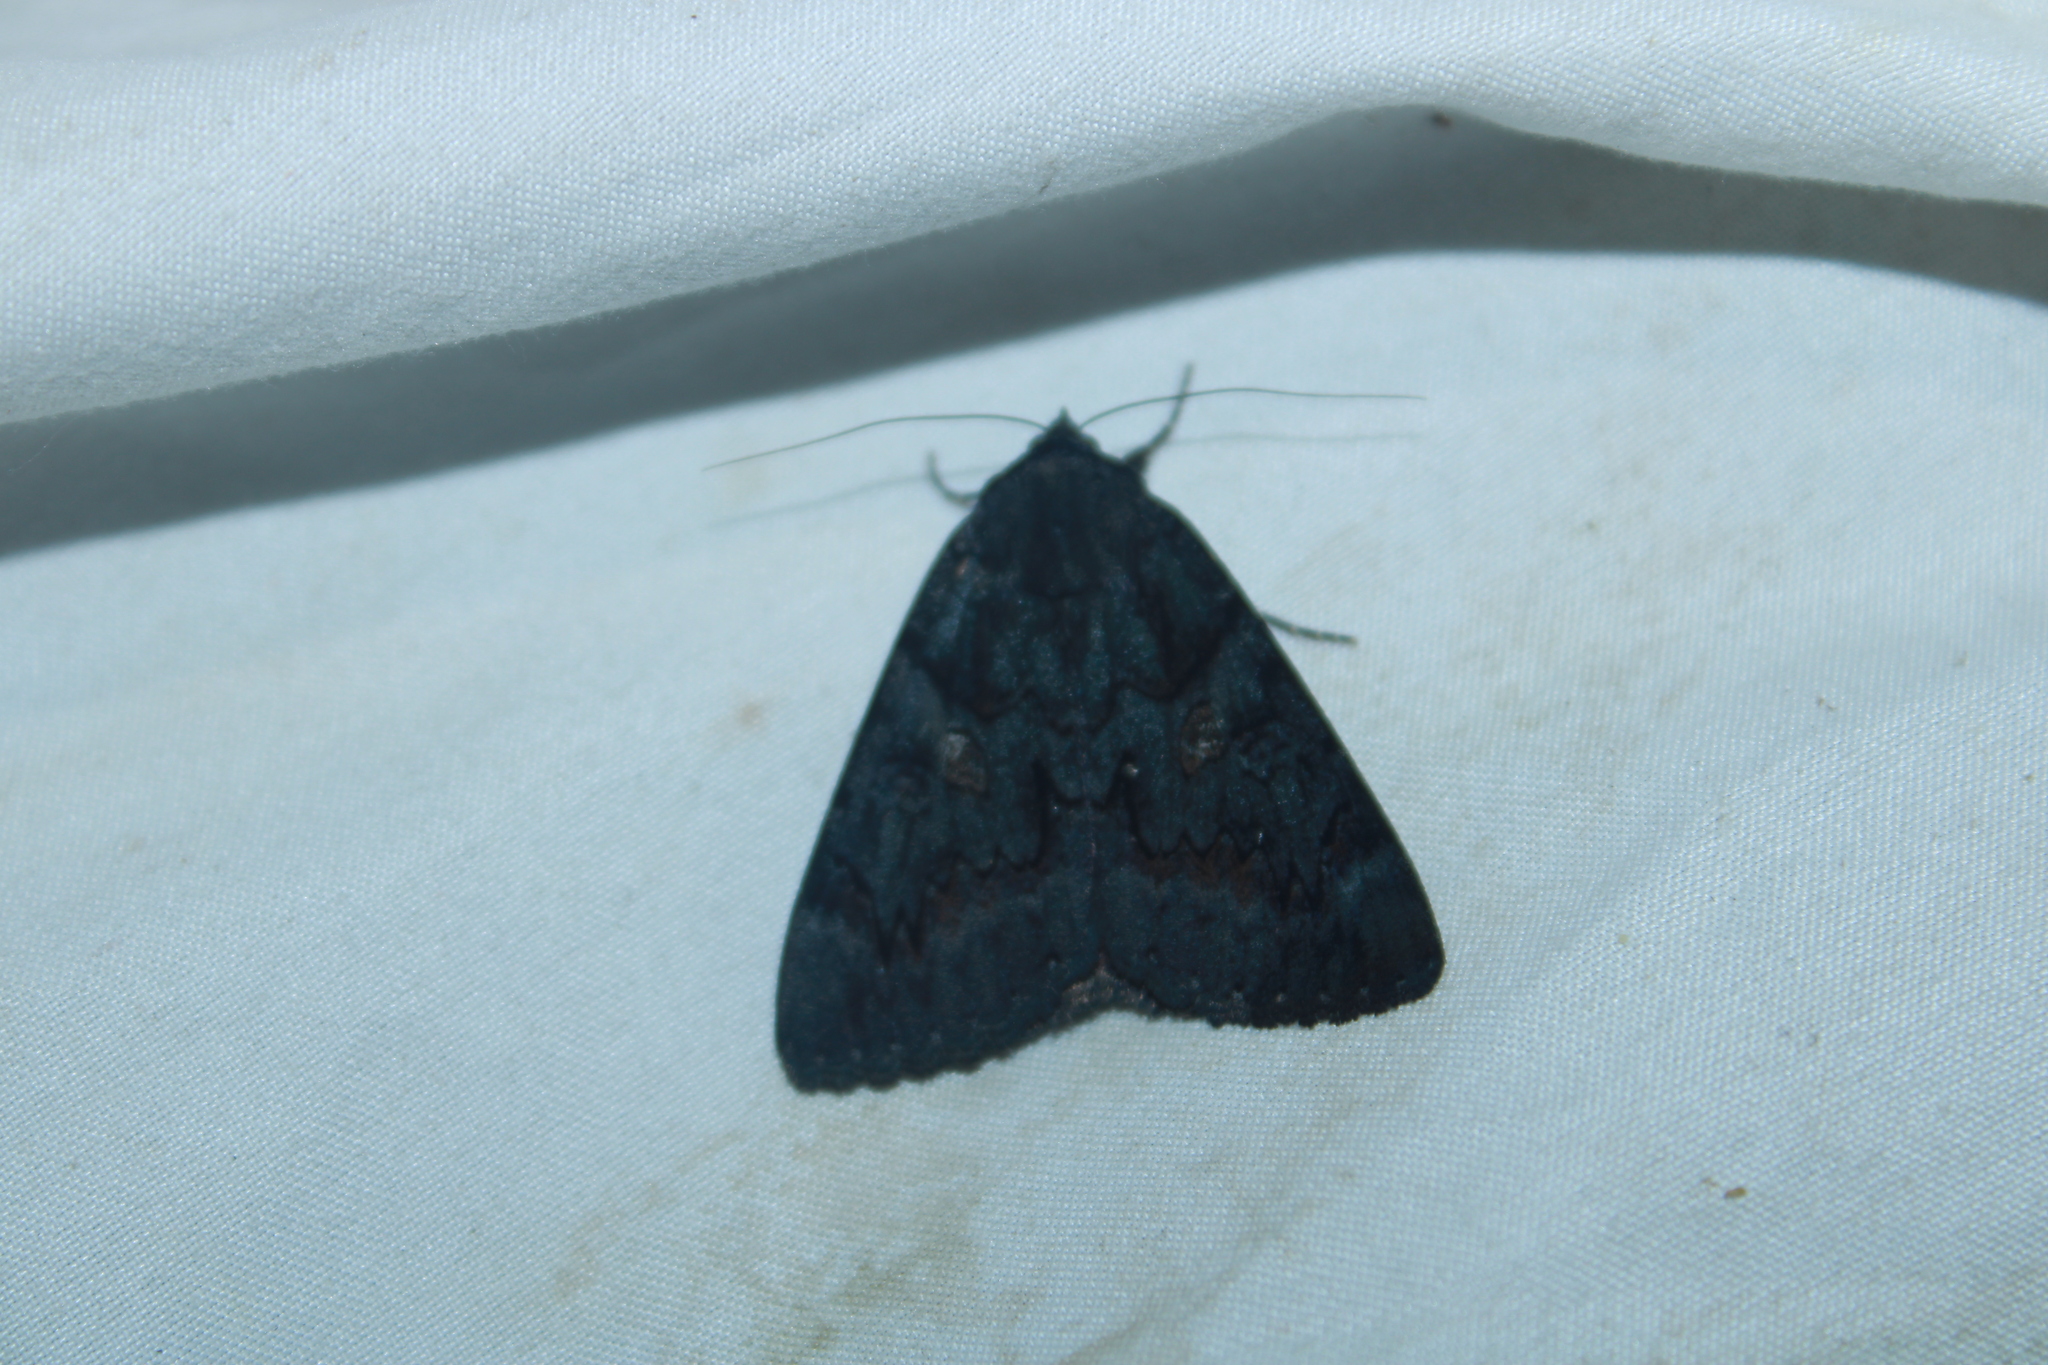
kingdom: Animalia
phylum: Arthropoda
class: Insecta
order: Lepidoptera
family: Erebidae
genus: Catocala
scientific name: Catocala antinympha
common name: Sweetfern underwing
